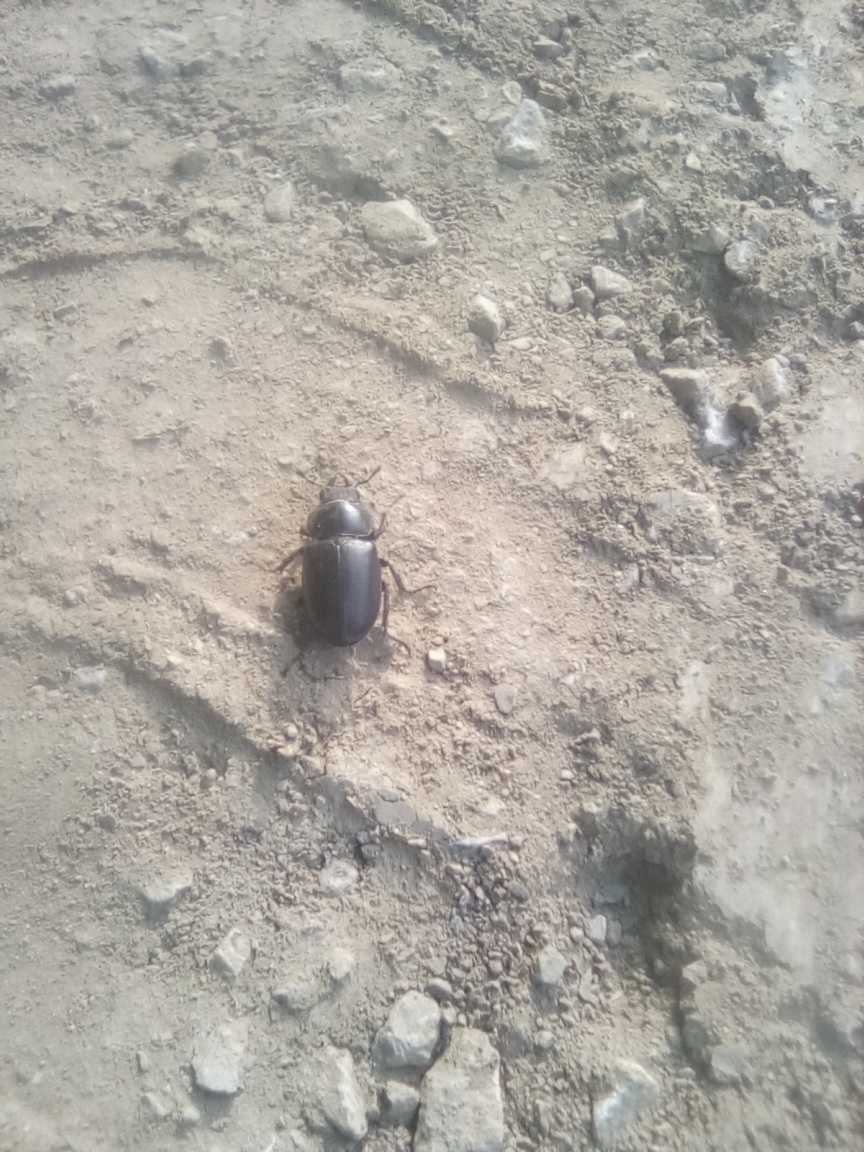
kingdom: Animalia
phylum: Arthropoda
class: Insecta
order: Coleoptera
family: Lucanidae
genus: Lucanus
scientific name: Lucanus cervus
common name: Stag beetle
